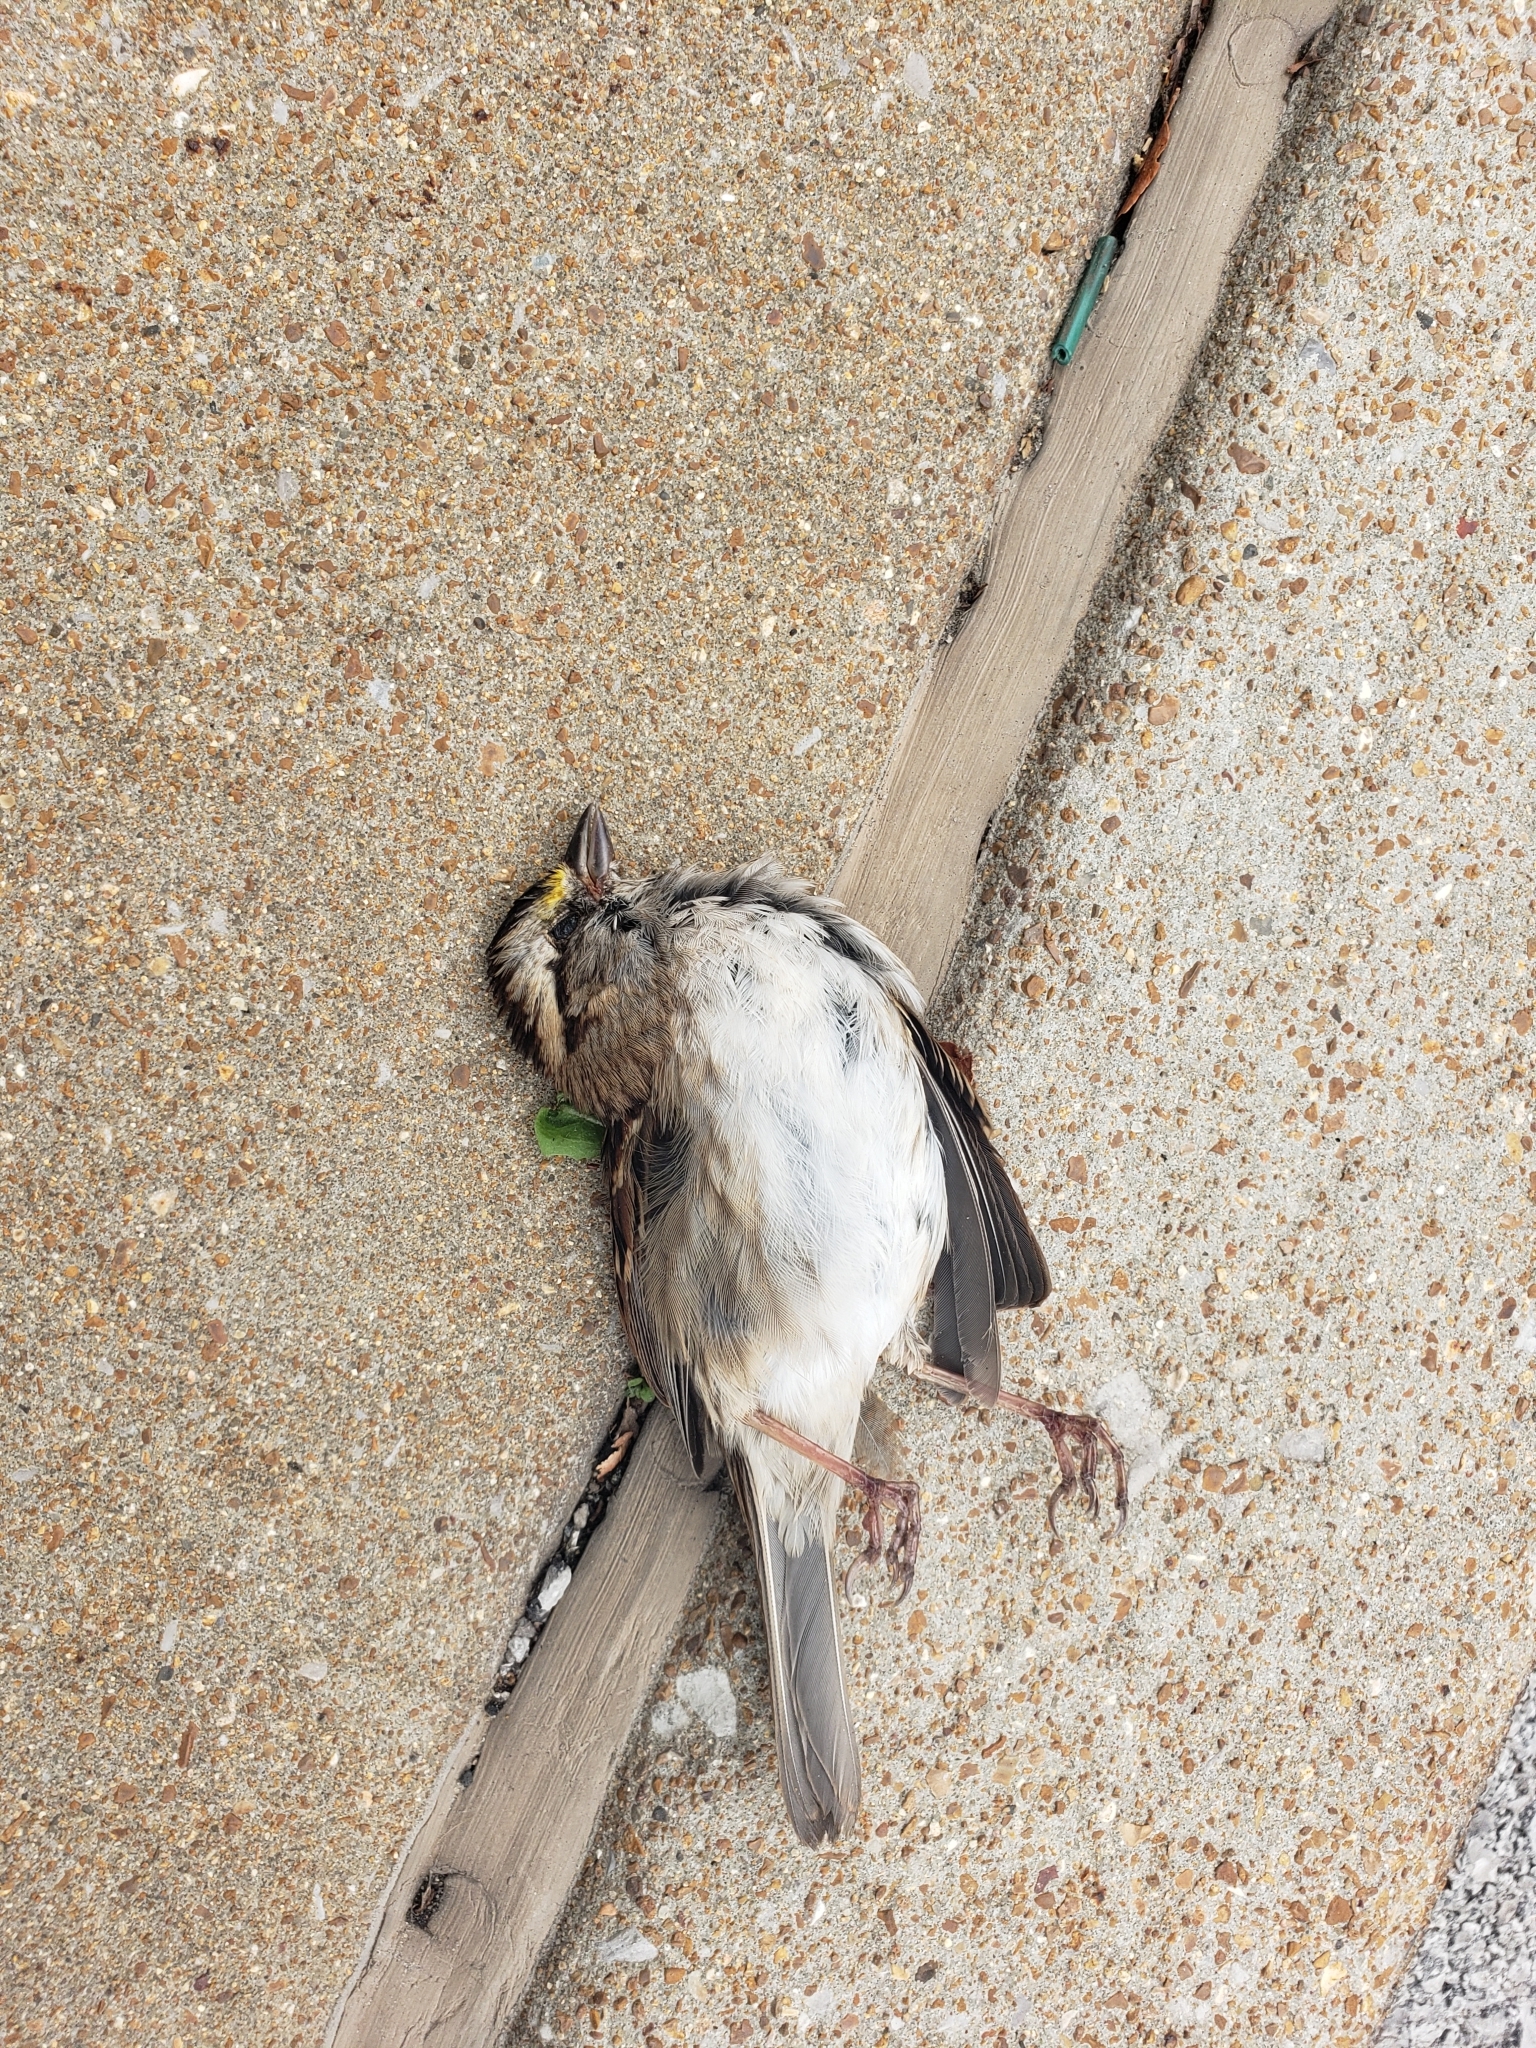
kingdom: Animalia
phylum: Chordata
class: Aves
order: Passeriformes
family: Passerellidae
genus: Zonotrichia
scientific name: Zonotrichia albicollis
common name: White-throated sparrow
